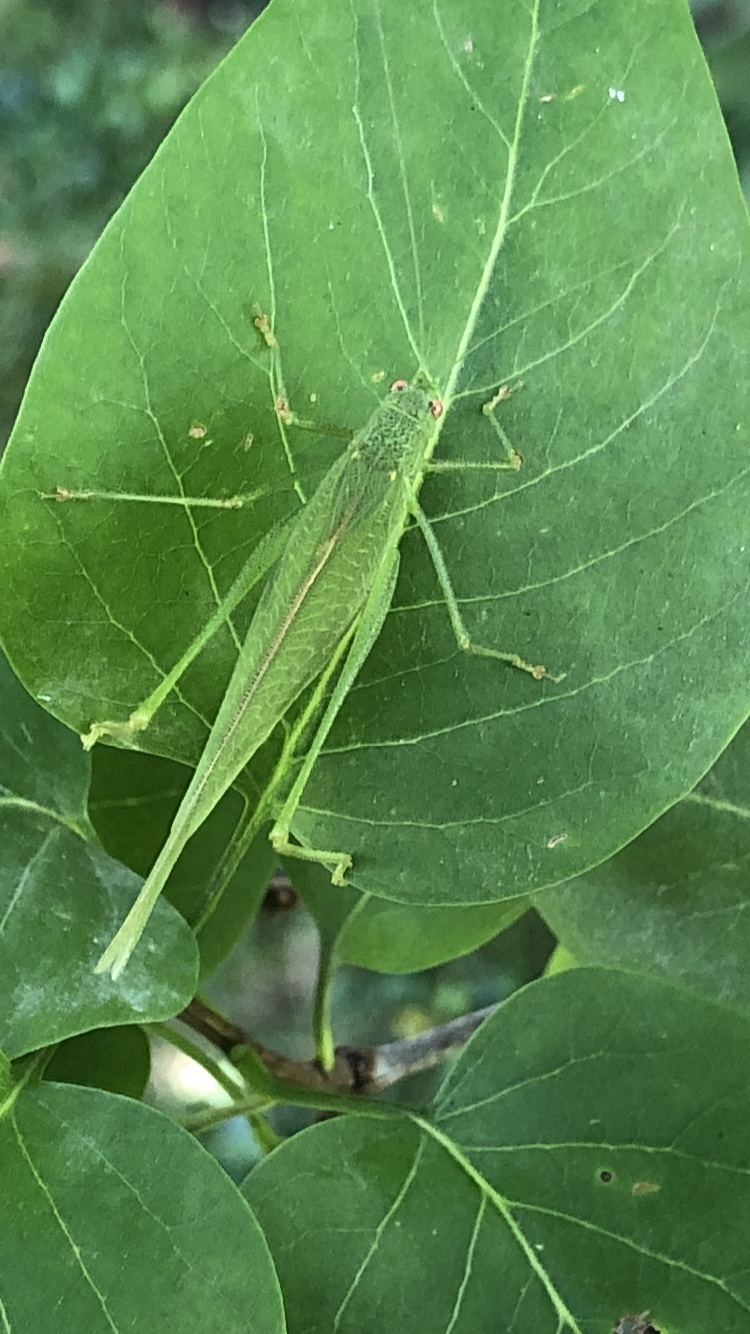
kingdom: Animalia
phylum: Arthropoda
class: Insecta
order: Orthoptera
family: Tettigoniidae
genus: Phaneroptera
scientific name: Phaneroptera nana
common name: Southern sickle bush-cricket
